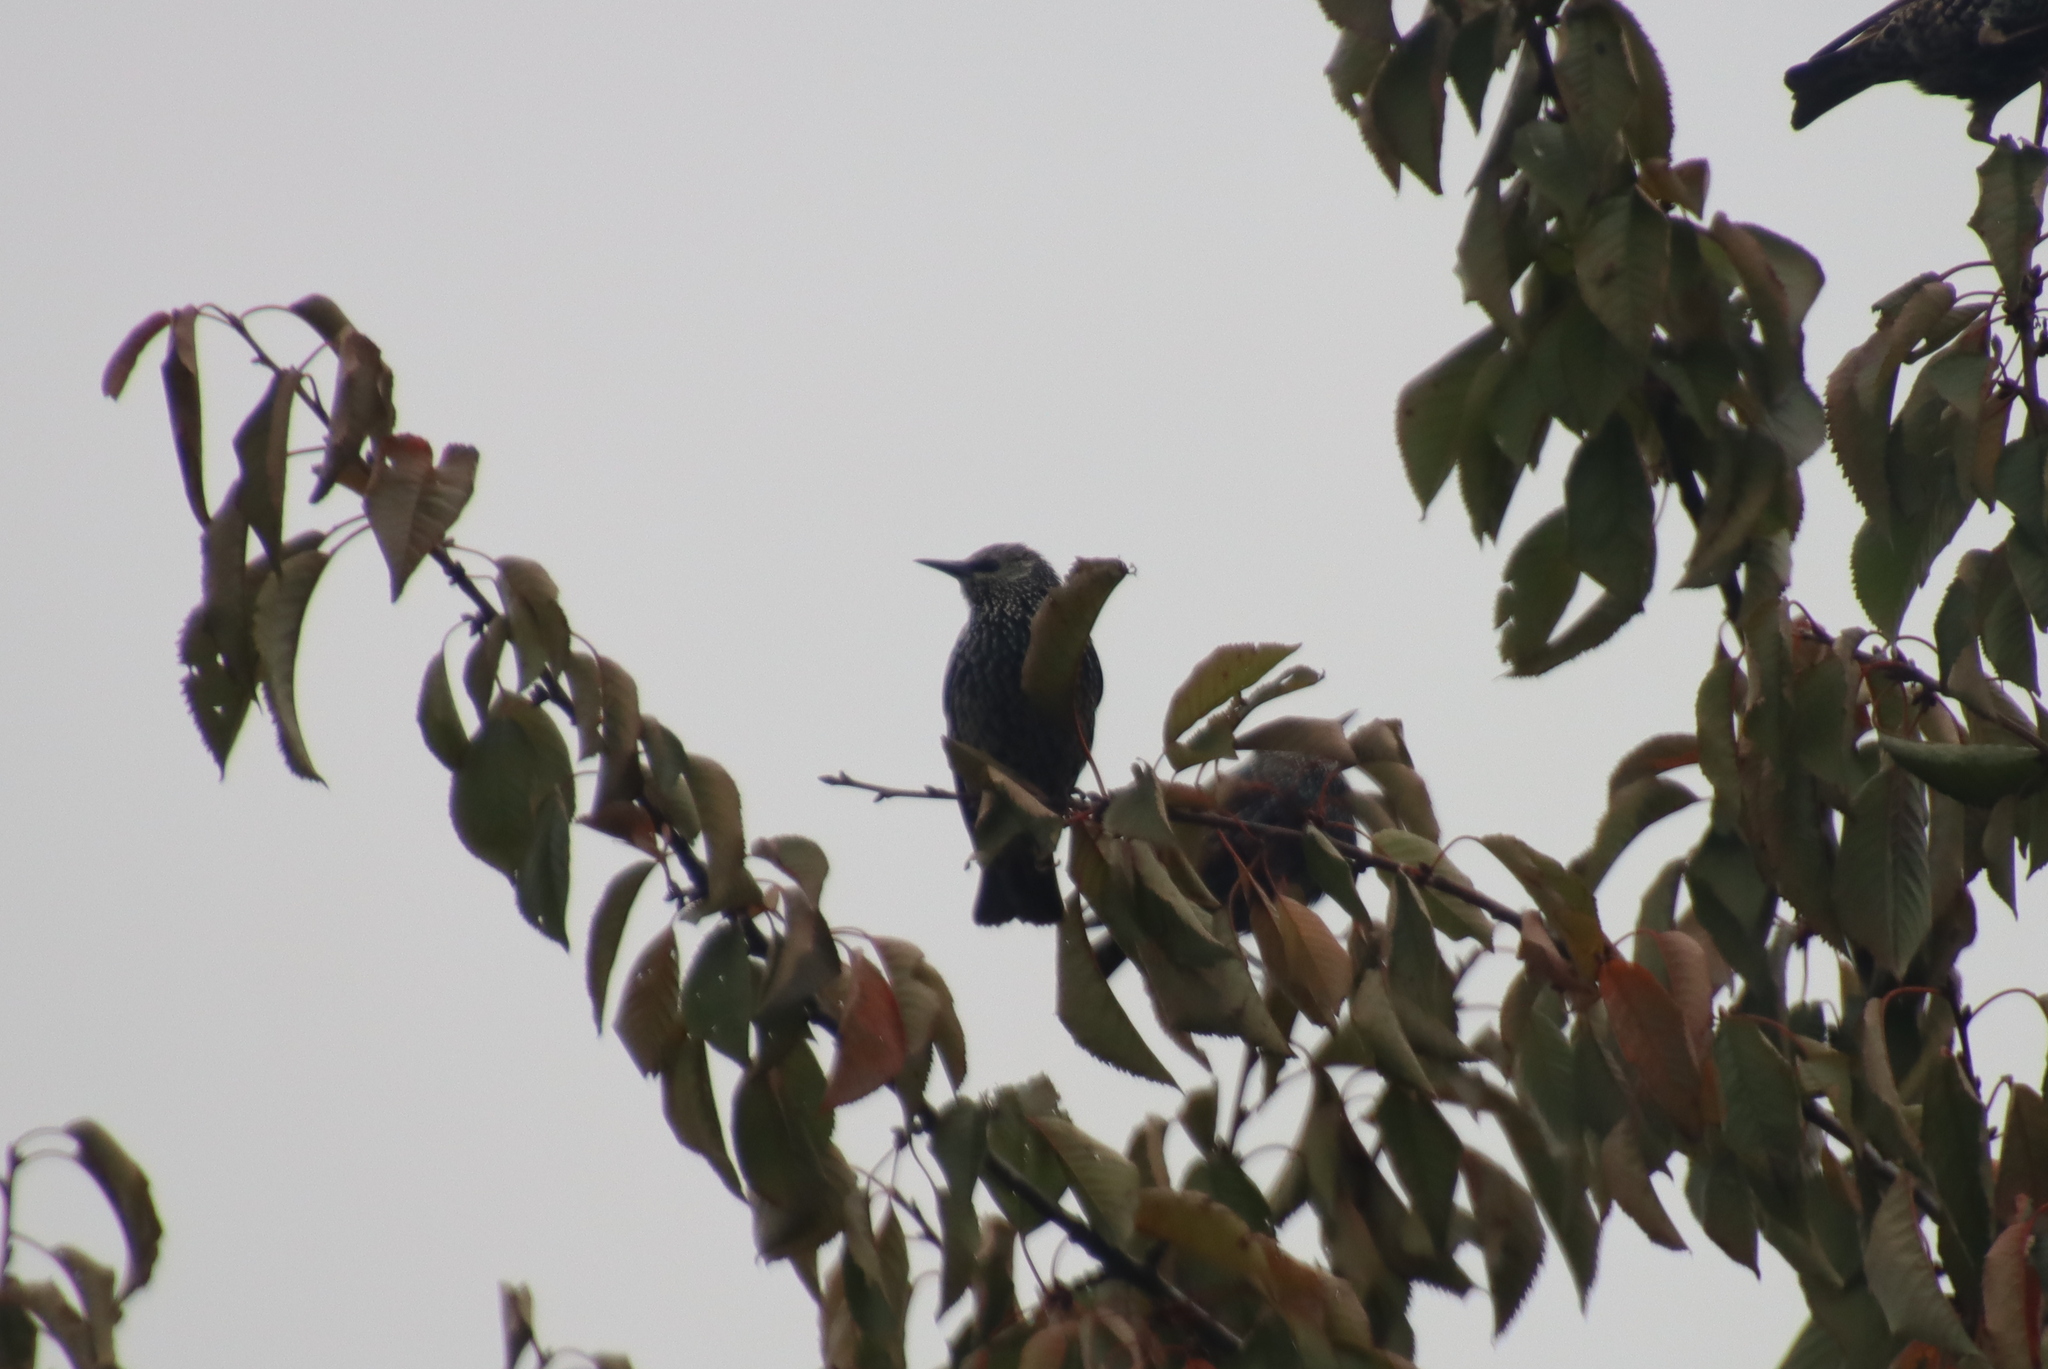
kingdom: Animalia
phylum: Chordata
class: Aves
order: Passeriformes
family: Sturnidae
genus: Sturnus
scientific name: Sturnus vulgaris
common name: Common starling
